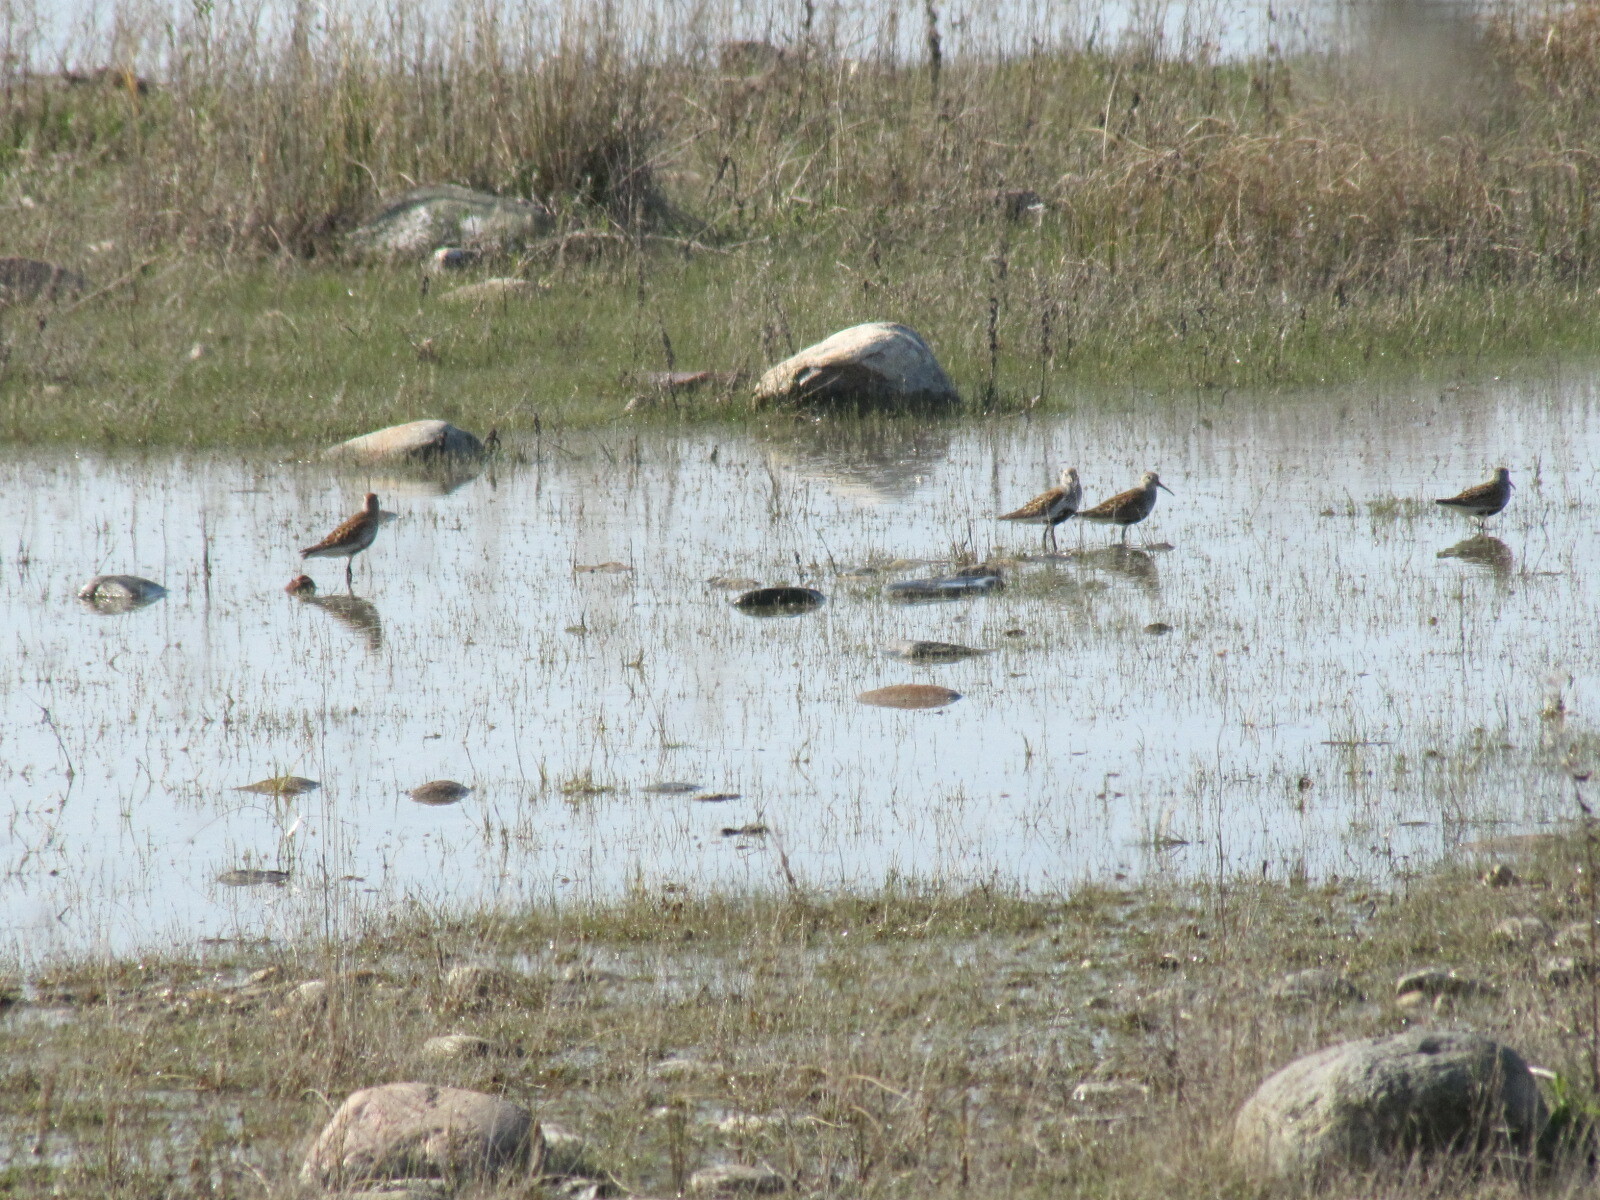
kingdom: Animalia
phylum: Chordata
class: Aves
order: Charadriiformes
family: Scolopacidae
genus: Calidris
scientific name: Calidris alpina
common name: Dunlin
